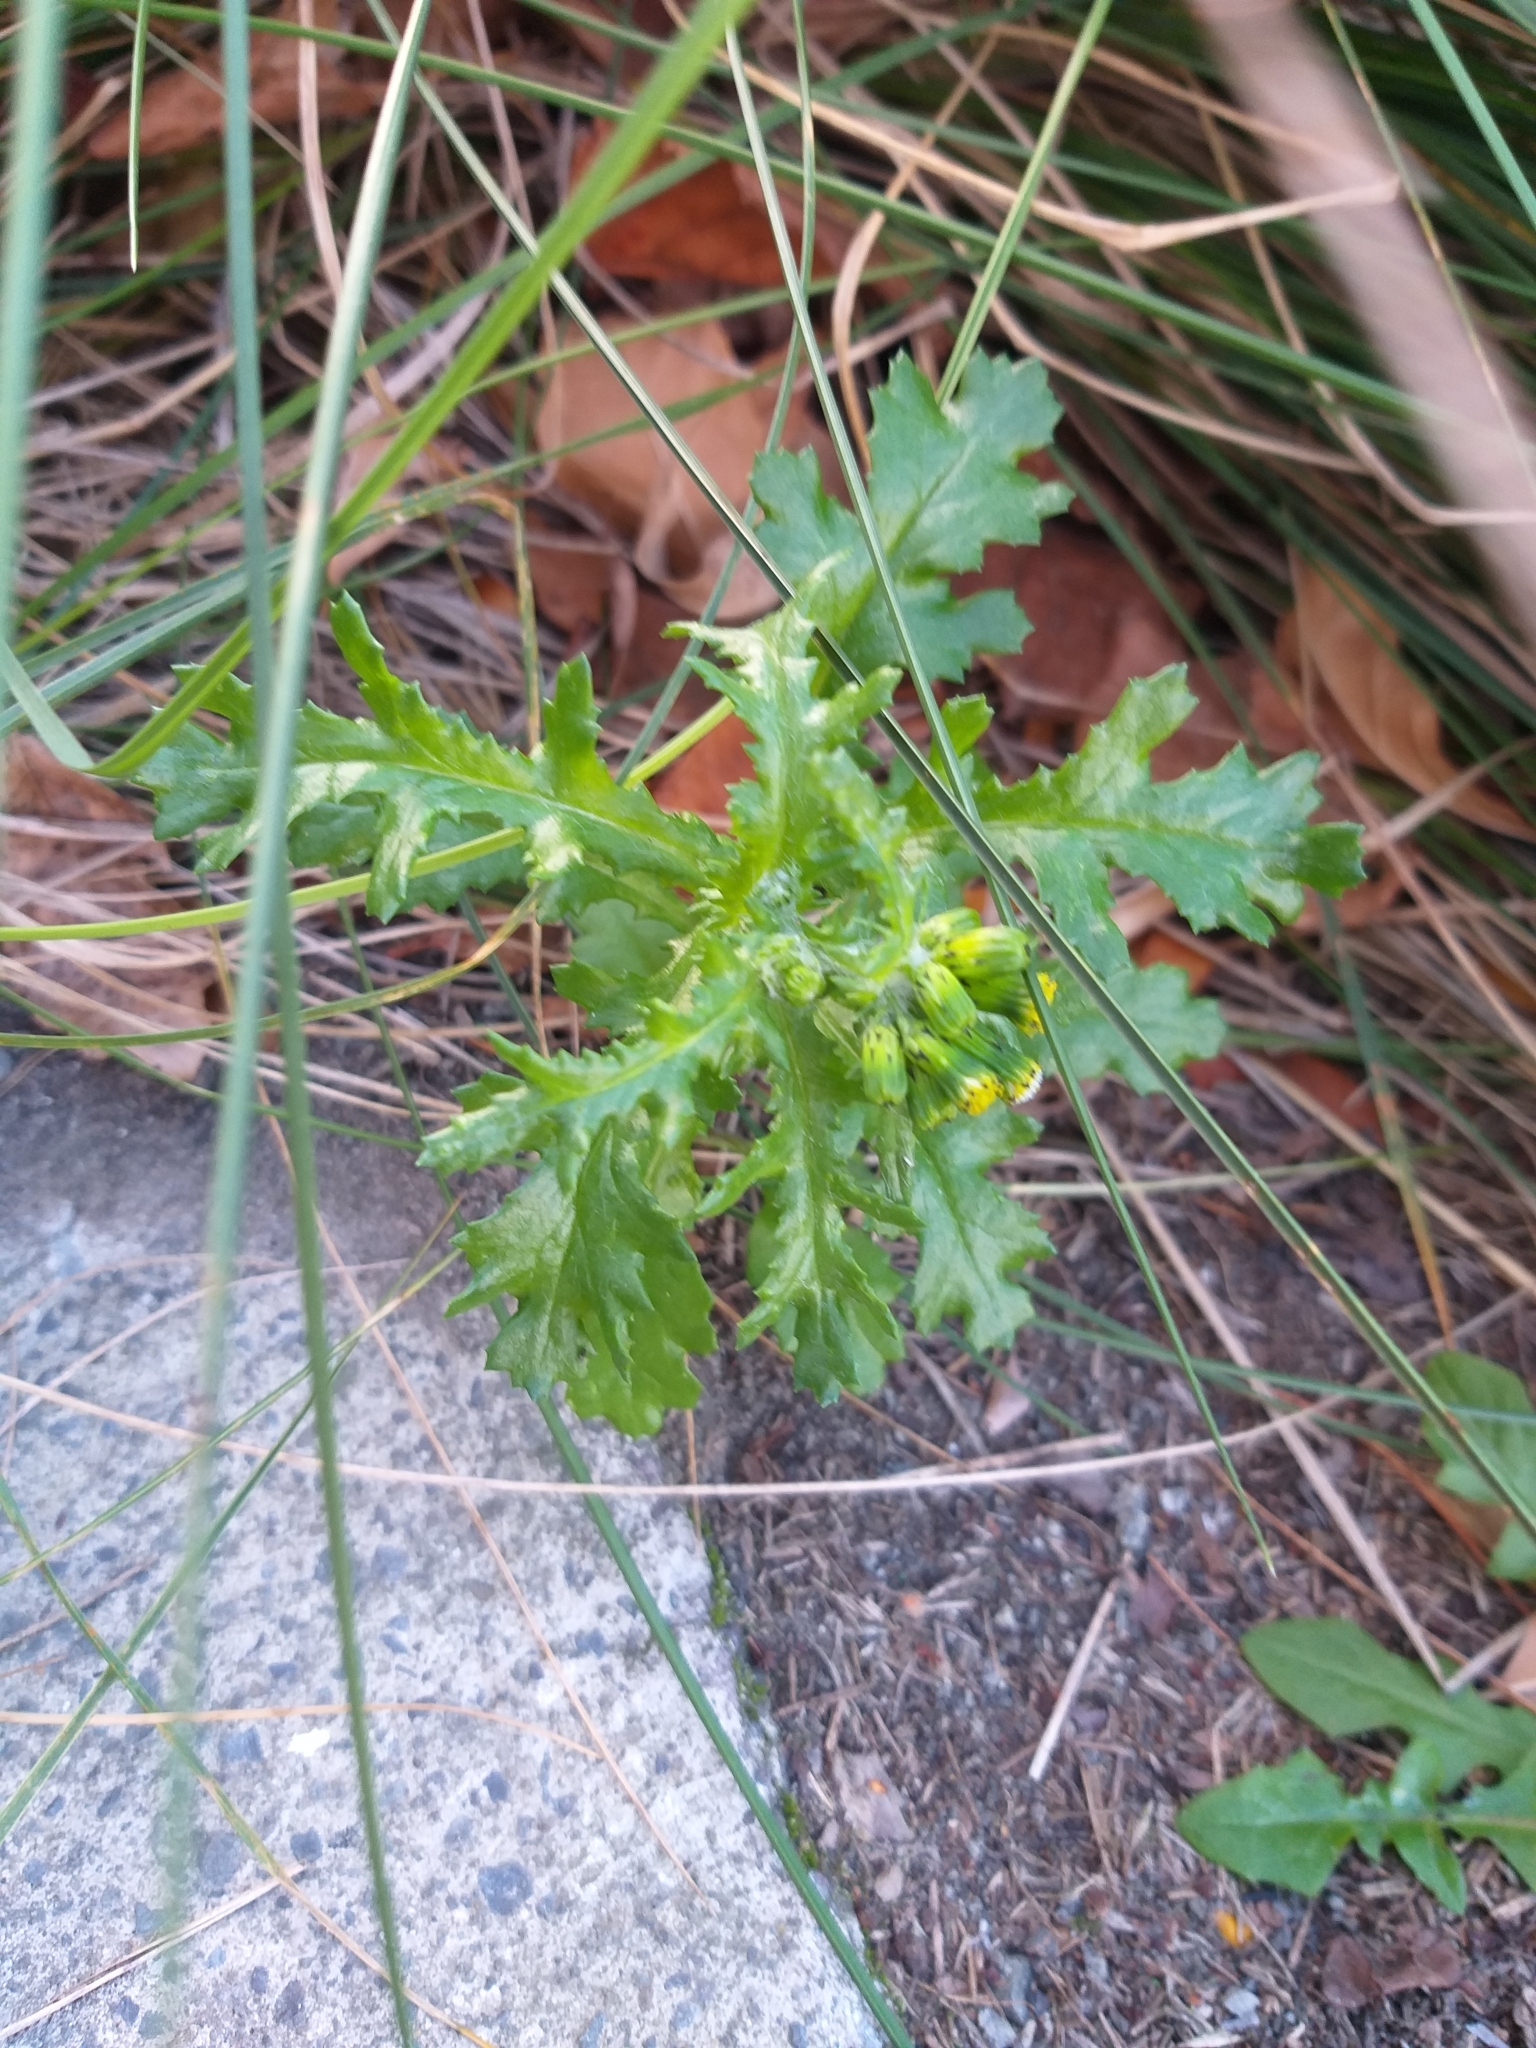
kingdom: Plantae
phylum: Tracheophyta
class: Magnoliopsida
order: Asterales
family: Asteraceae
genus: Senecio
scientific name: Senecio vulgaris
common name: Old-man-in-the-spring
